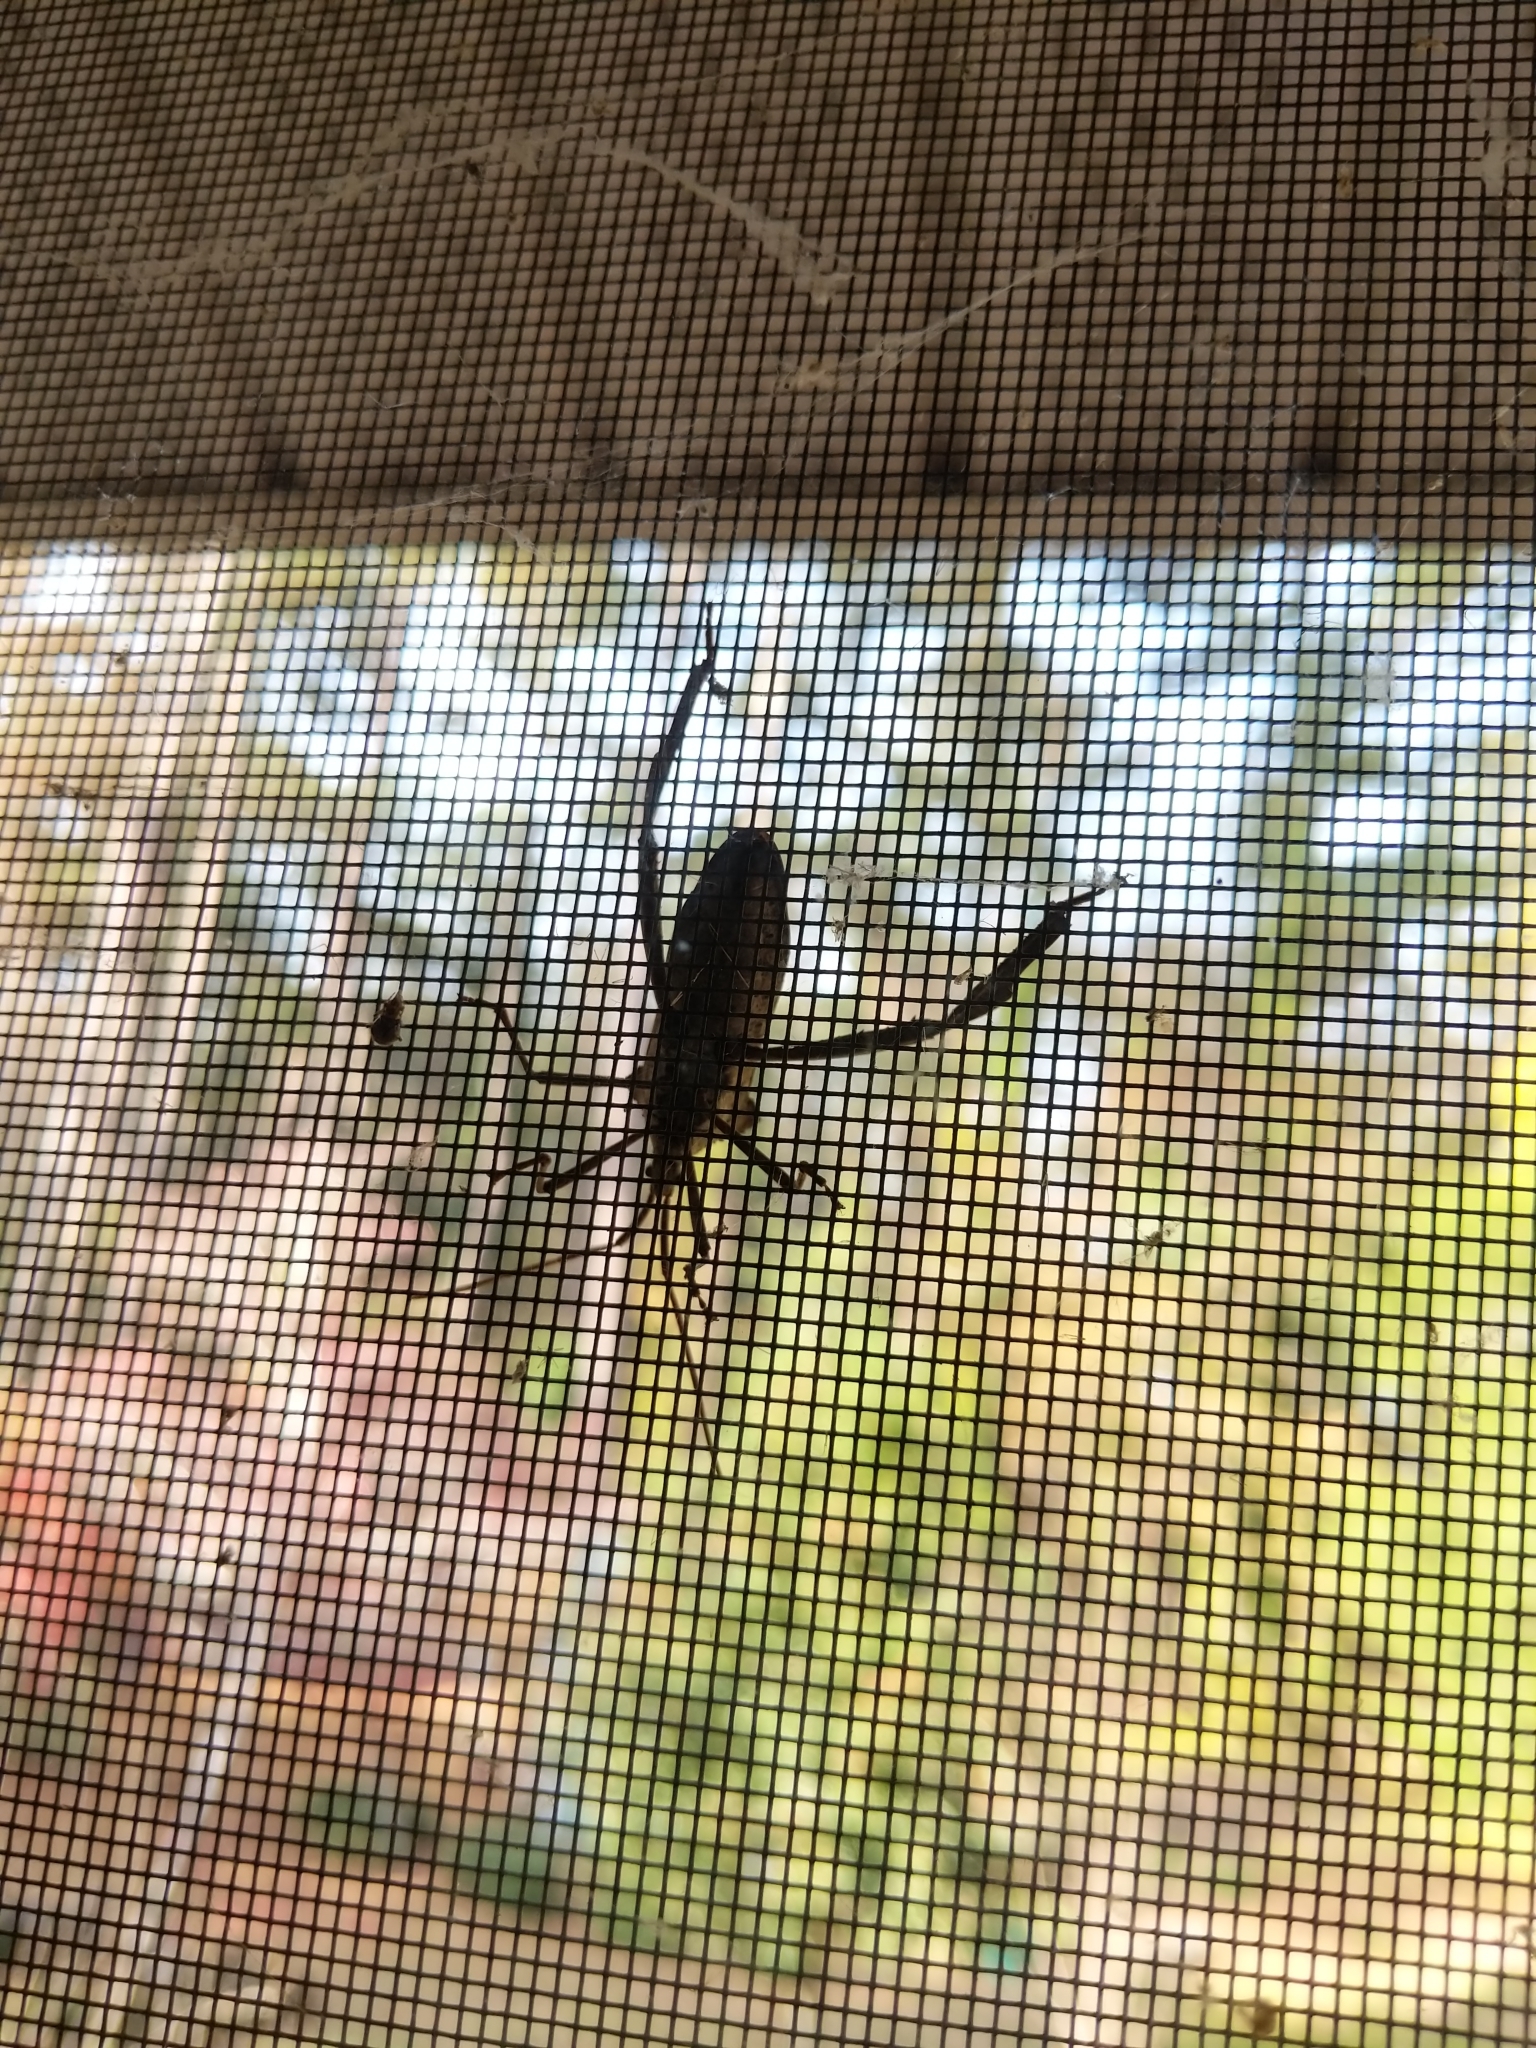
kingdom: Animalia
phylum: Arthropoda
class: Insecta
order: Hemiptera
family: Coreidae
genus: Acanthocephala
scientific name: Acanthocephala declivis
